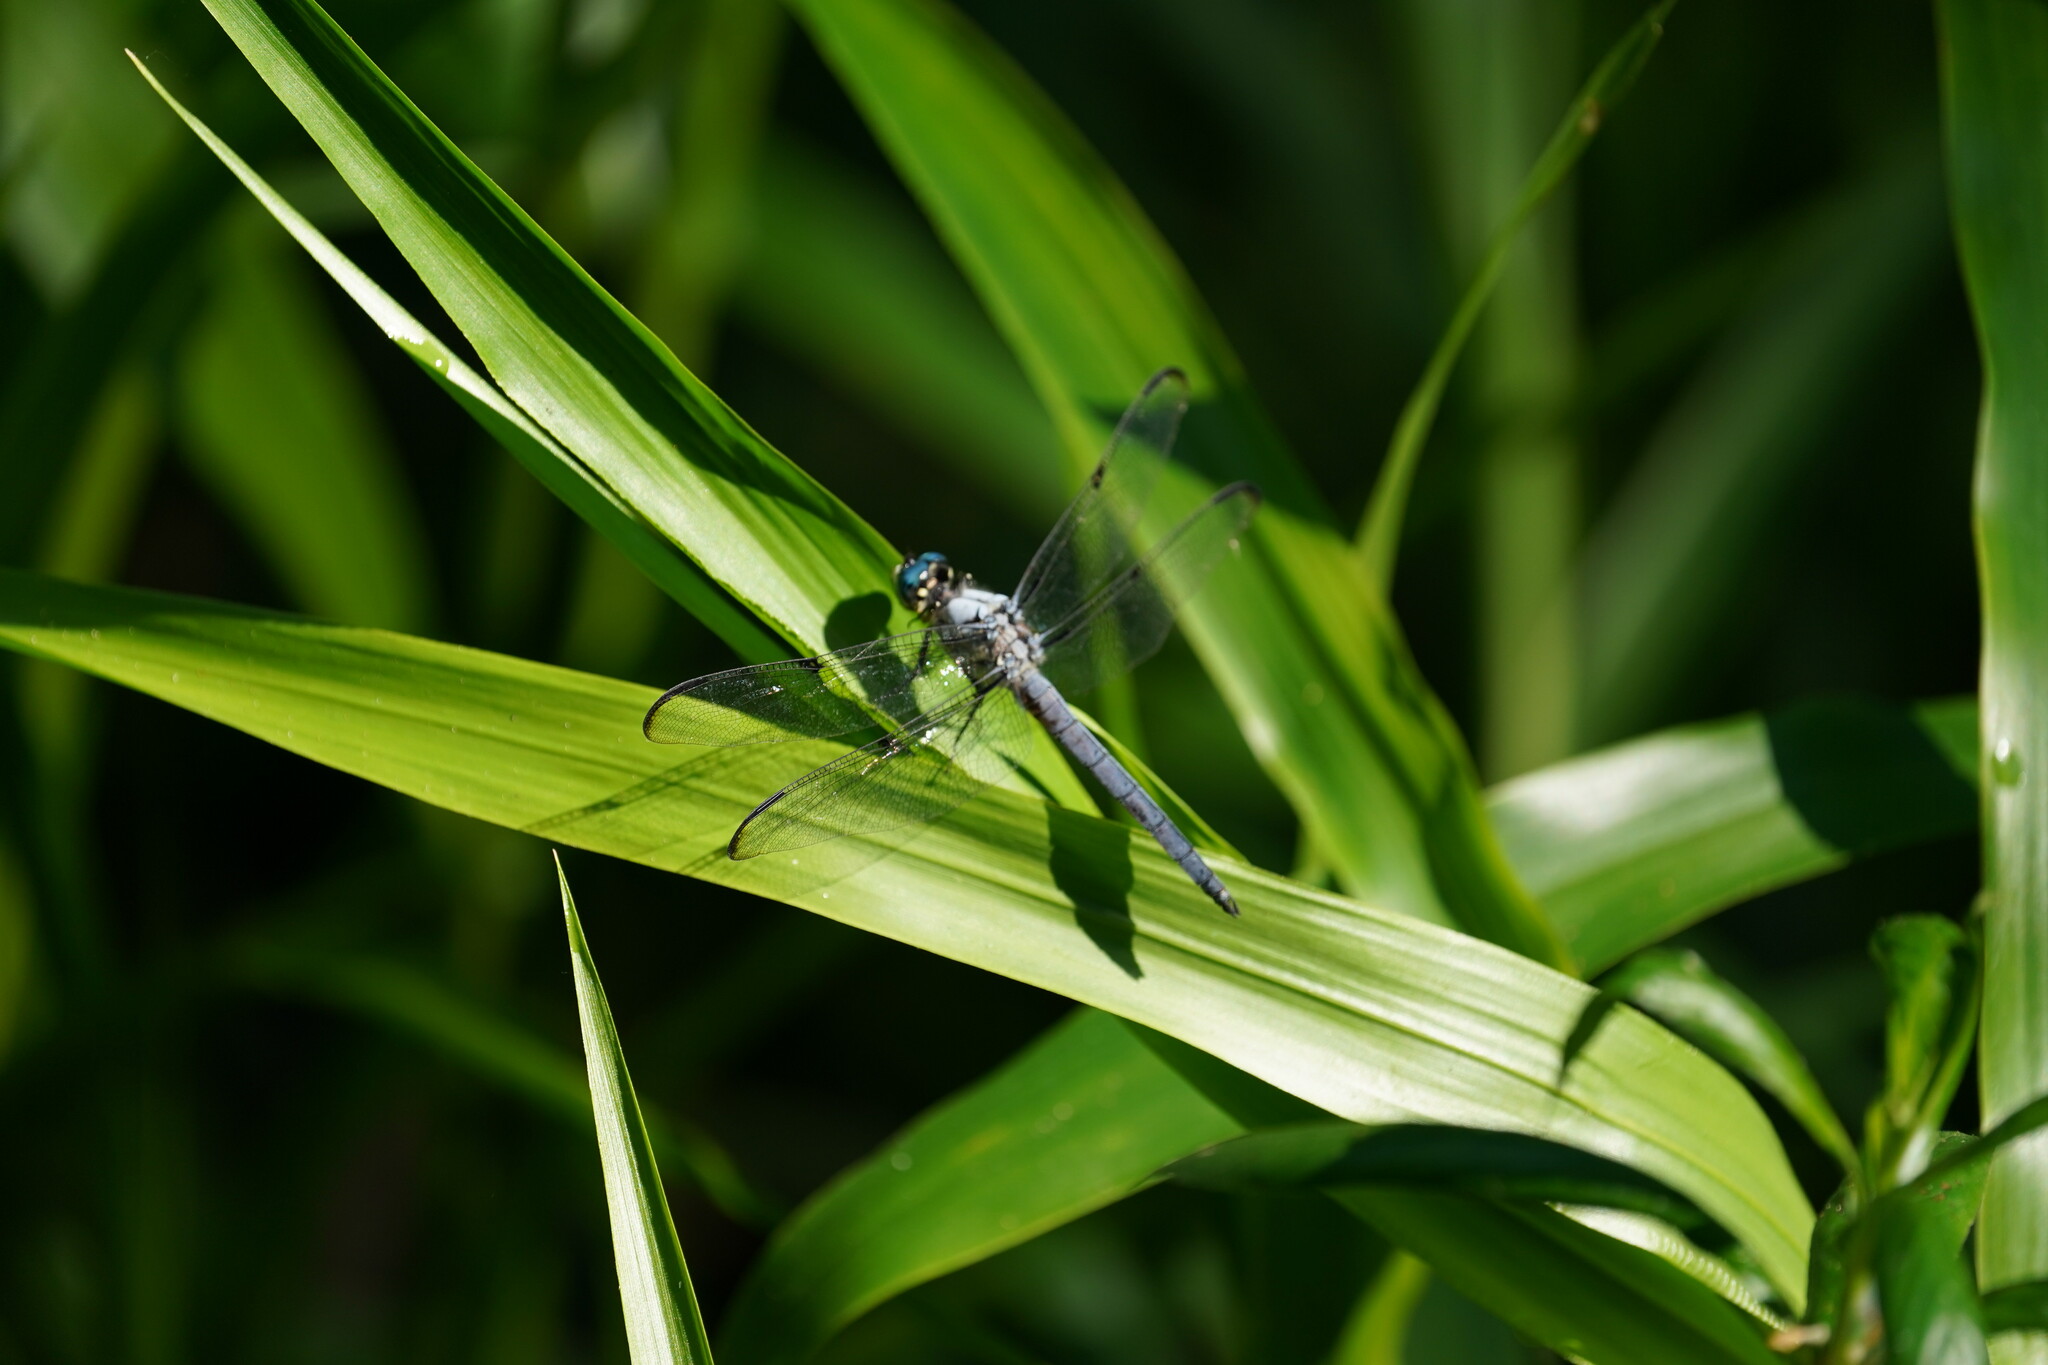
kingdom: Animalia
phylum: Arthropoda
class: Insecta
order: Odonata
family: Libellulidae
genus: Libellula
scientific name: Libellula vibrans
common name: Great blue skimmer
